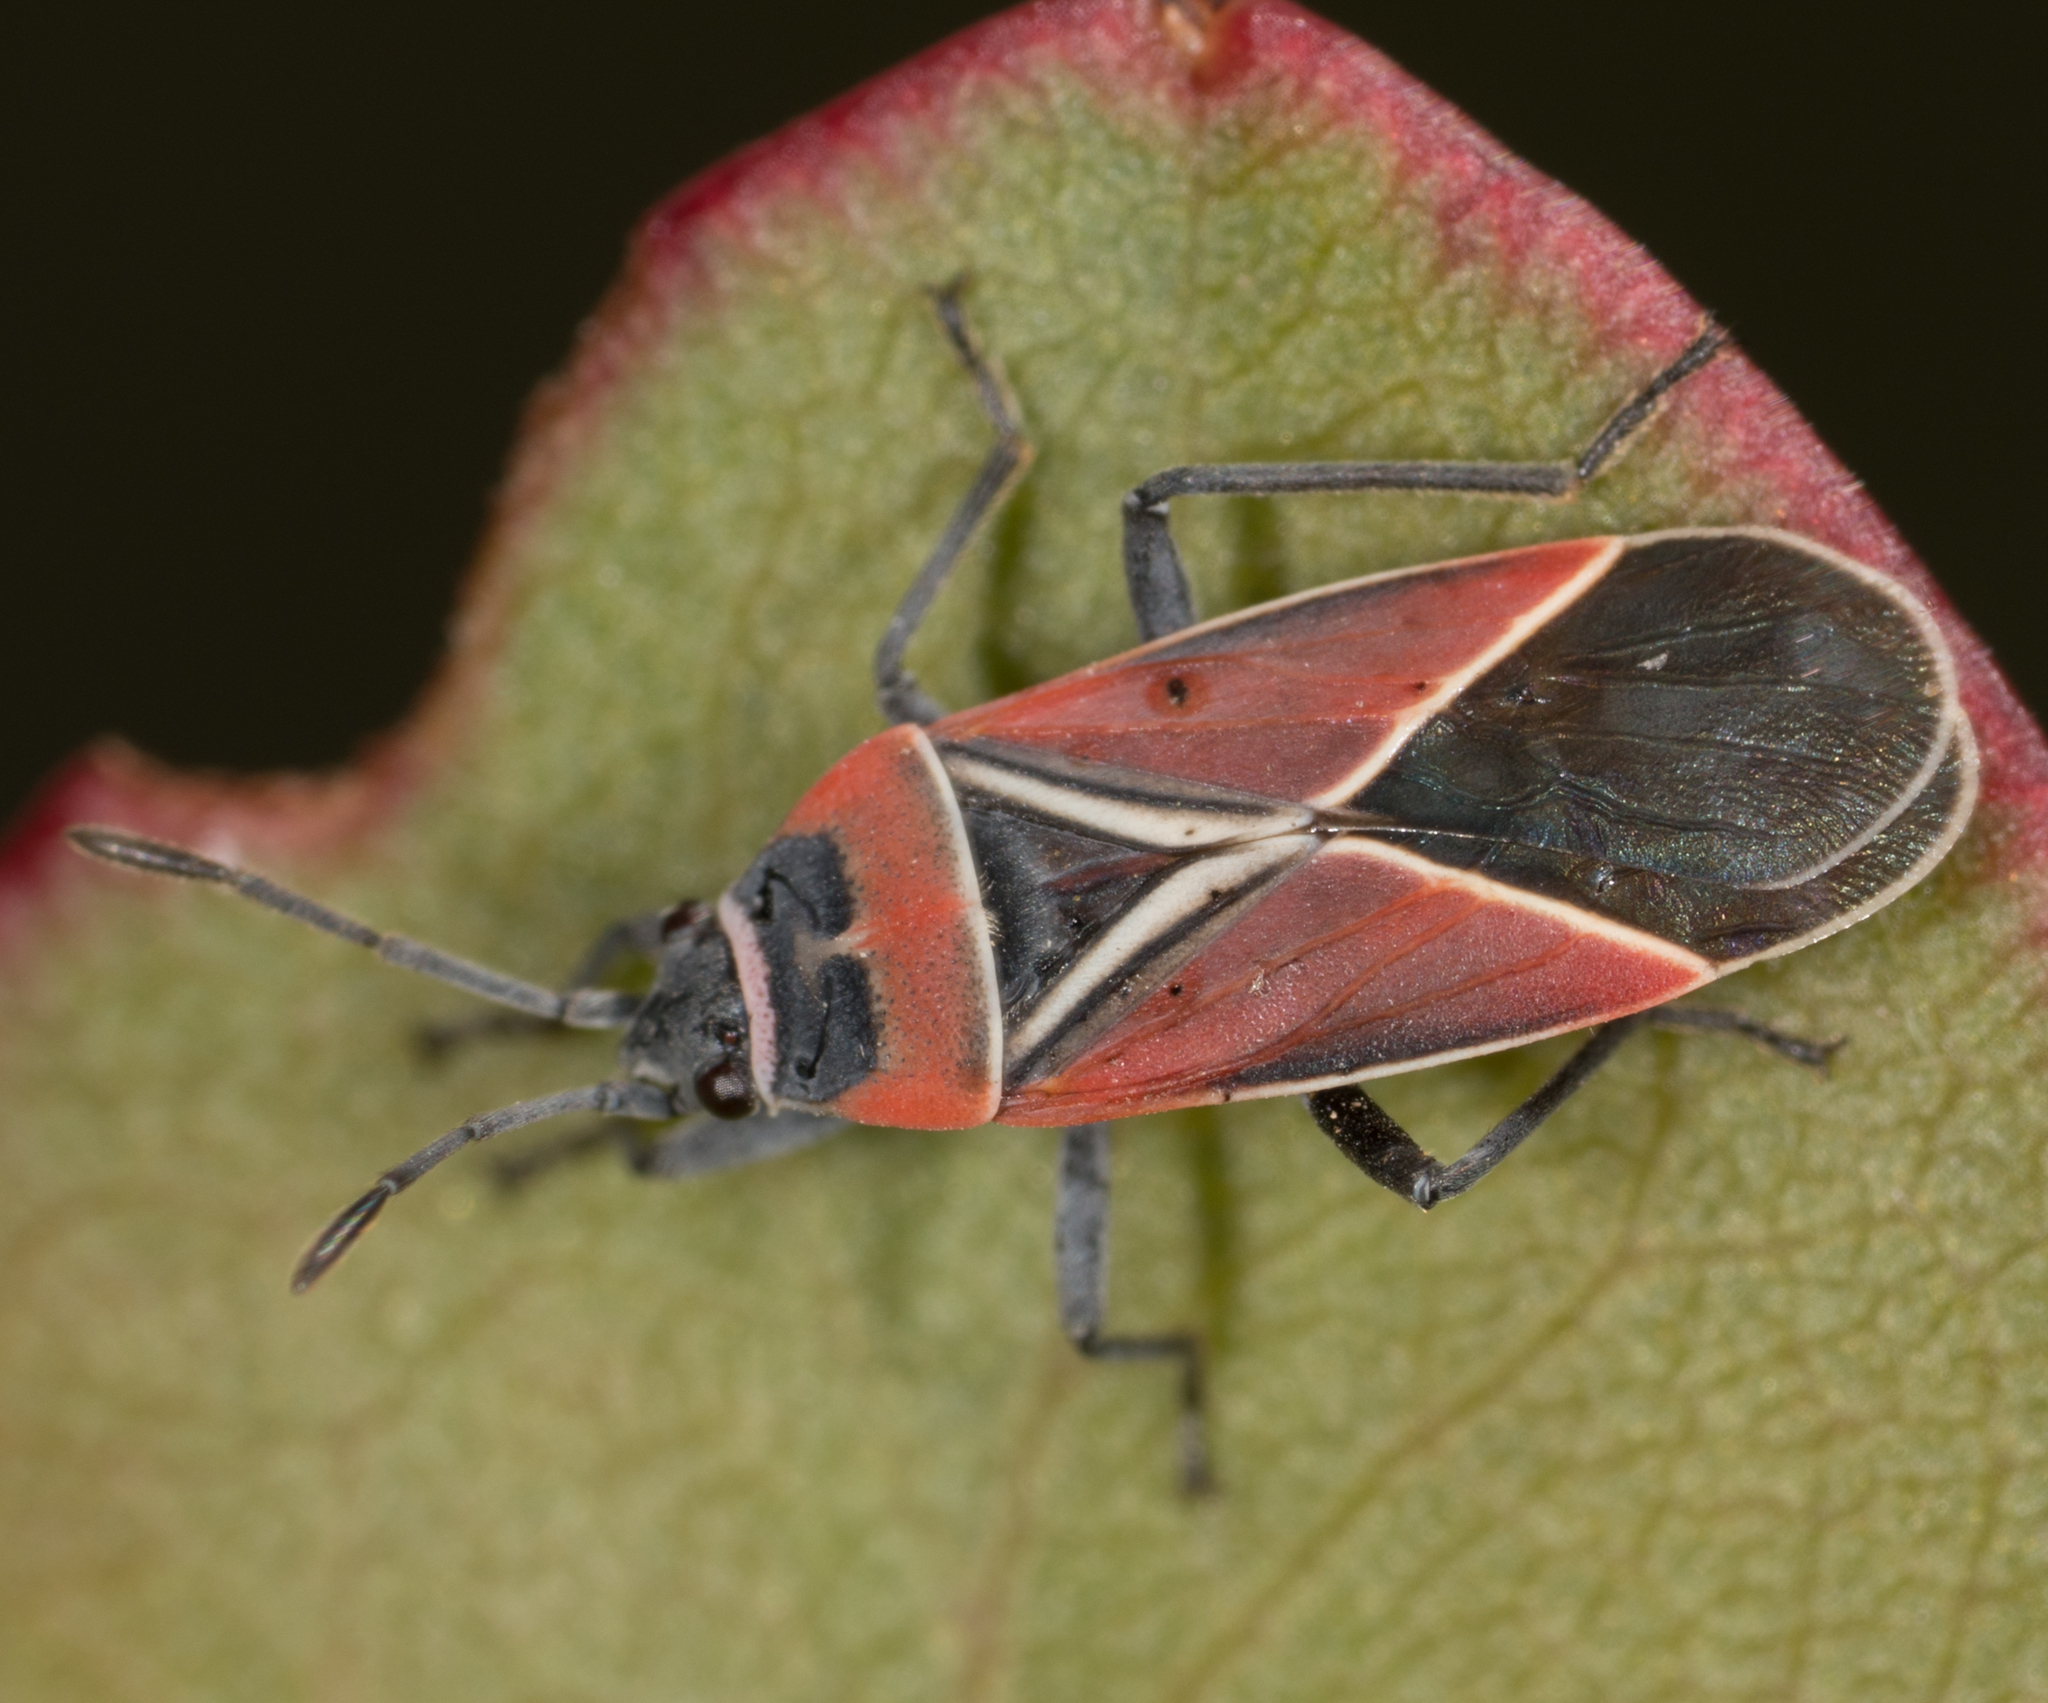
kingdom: Animalia
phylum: Arthropoda
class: Insecta
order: Hemiptera
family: Lygaeidae
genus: Neacoryphus
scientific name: Neacoryphus bicrucis
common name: Lygaeid bug
